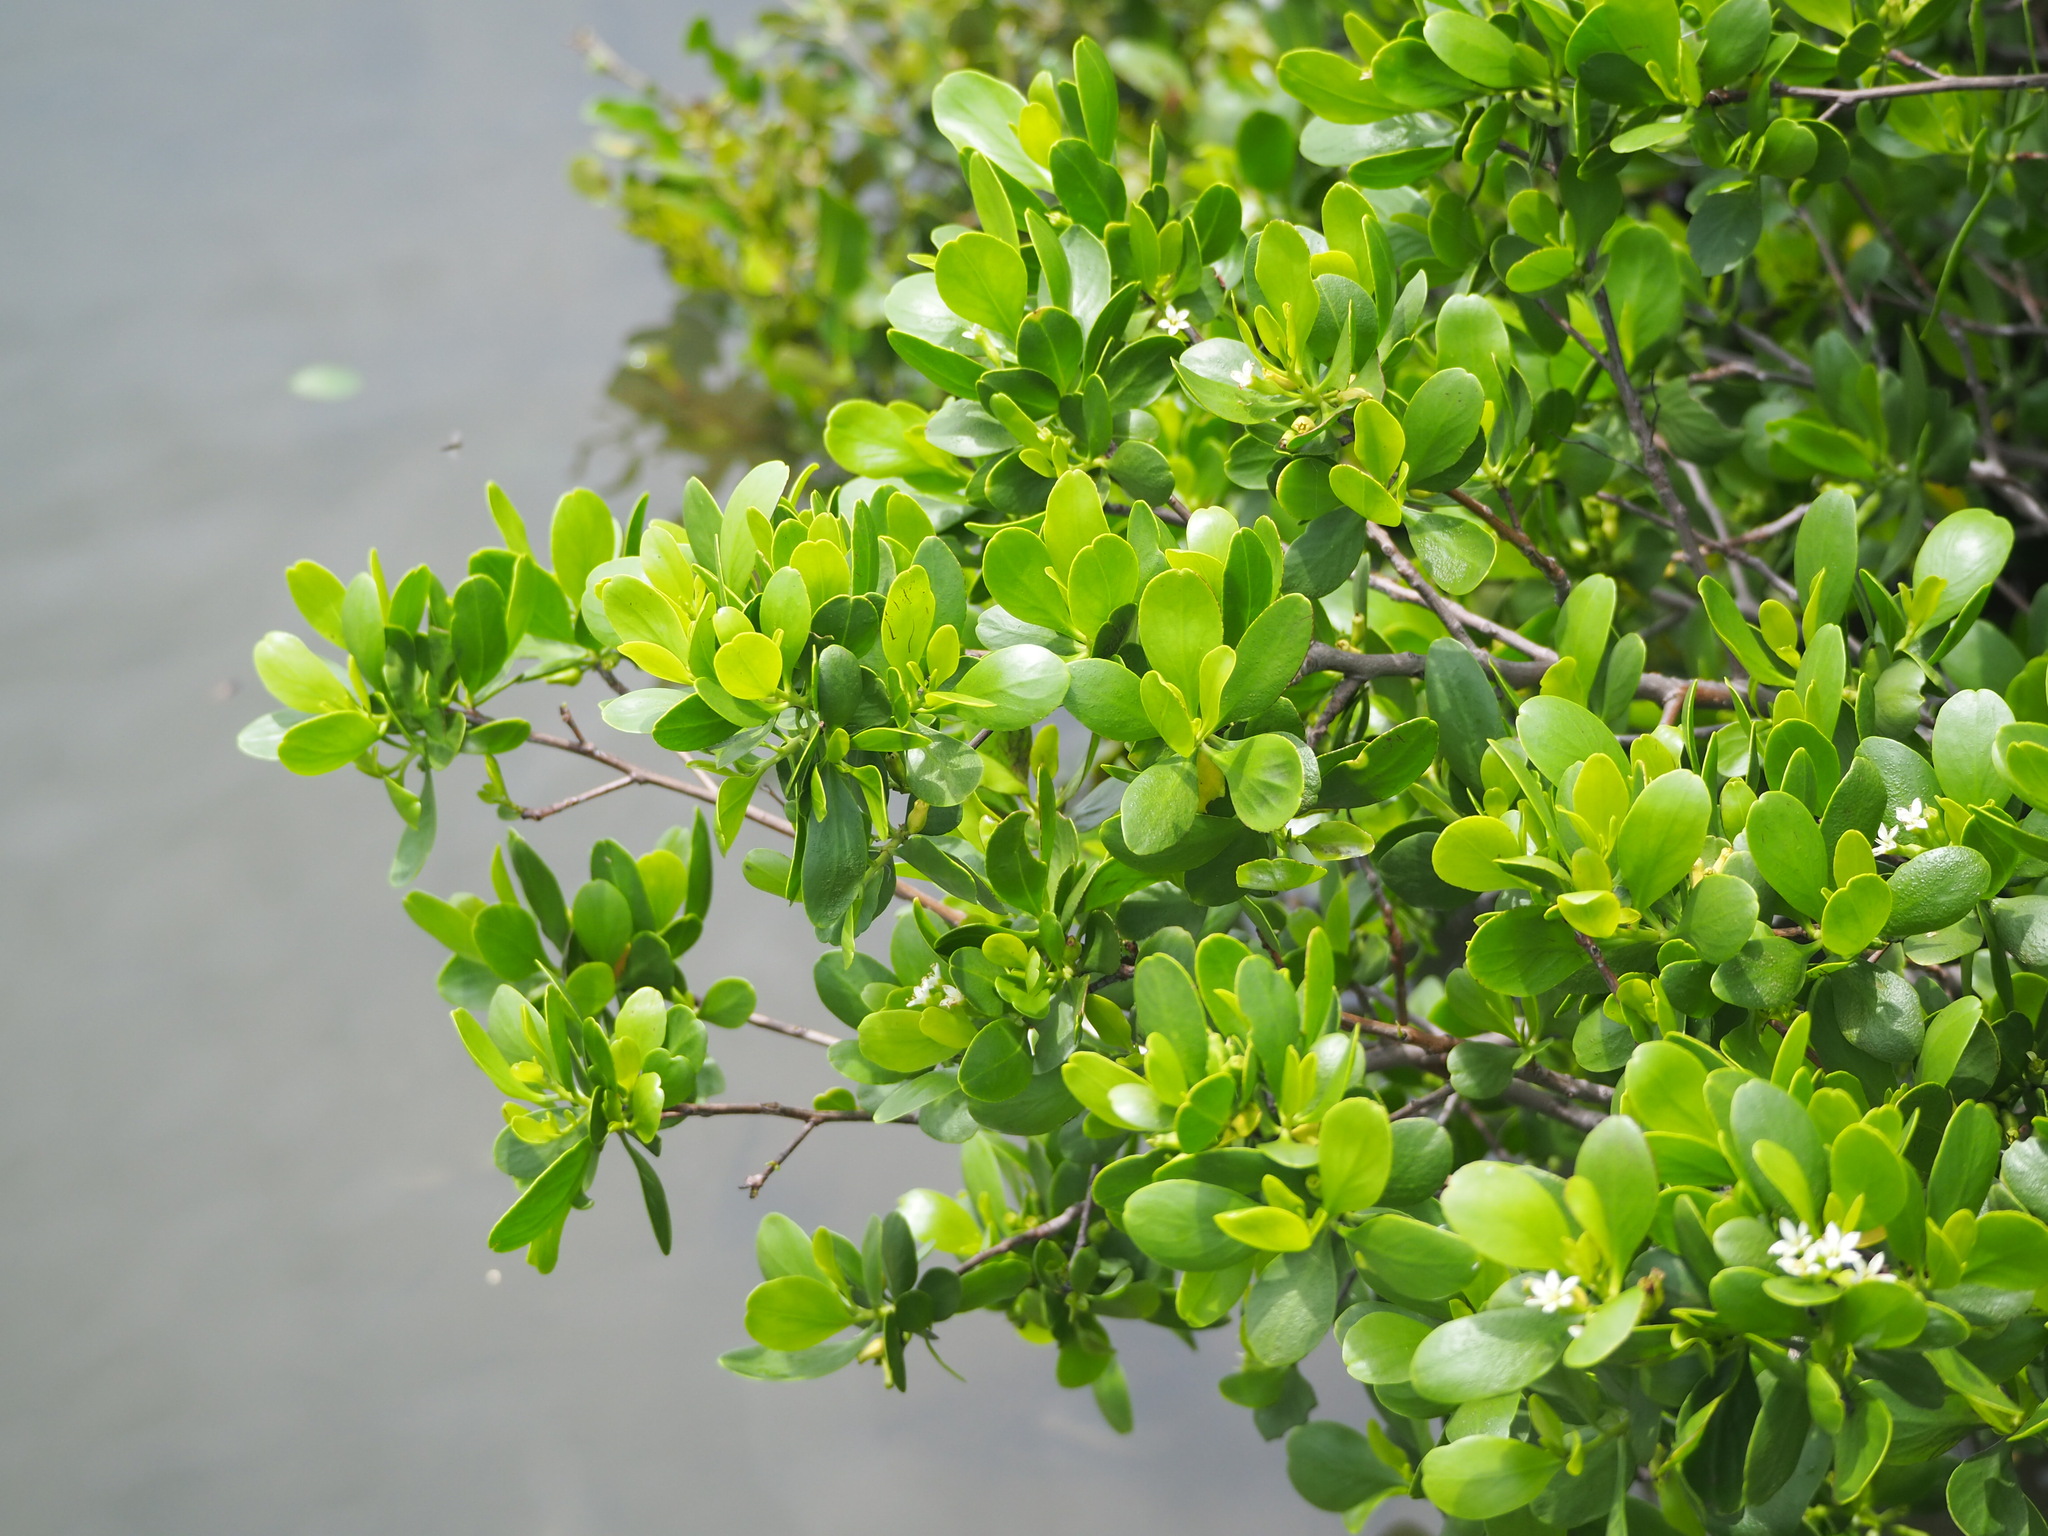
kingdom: Plantae
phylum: Tracheophyta
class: Magnoliopsida
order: Myrtales
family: Combretaceae
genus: Lumnitzera
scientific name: Lumnitzera racemosa
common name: White-flowered black mangrove
